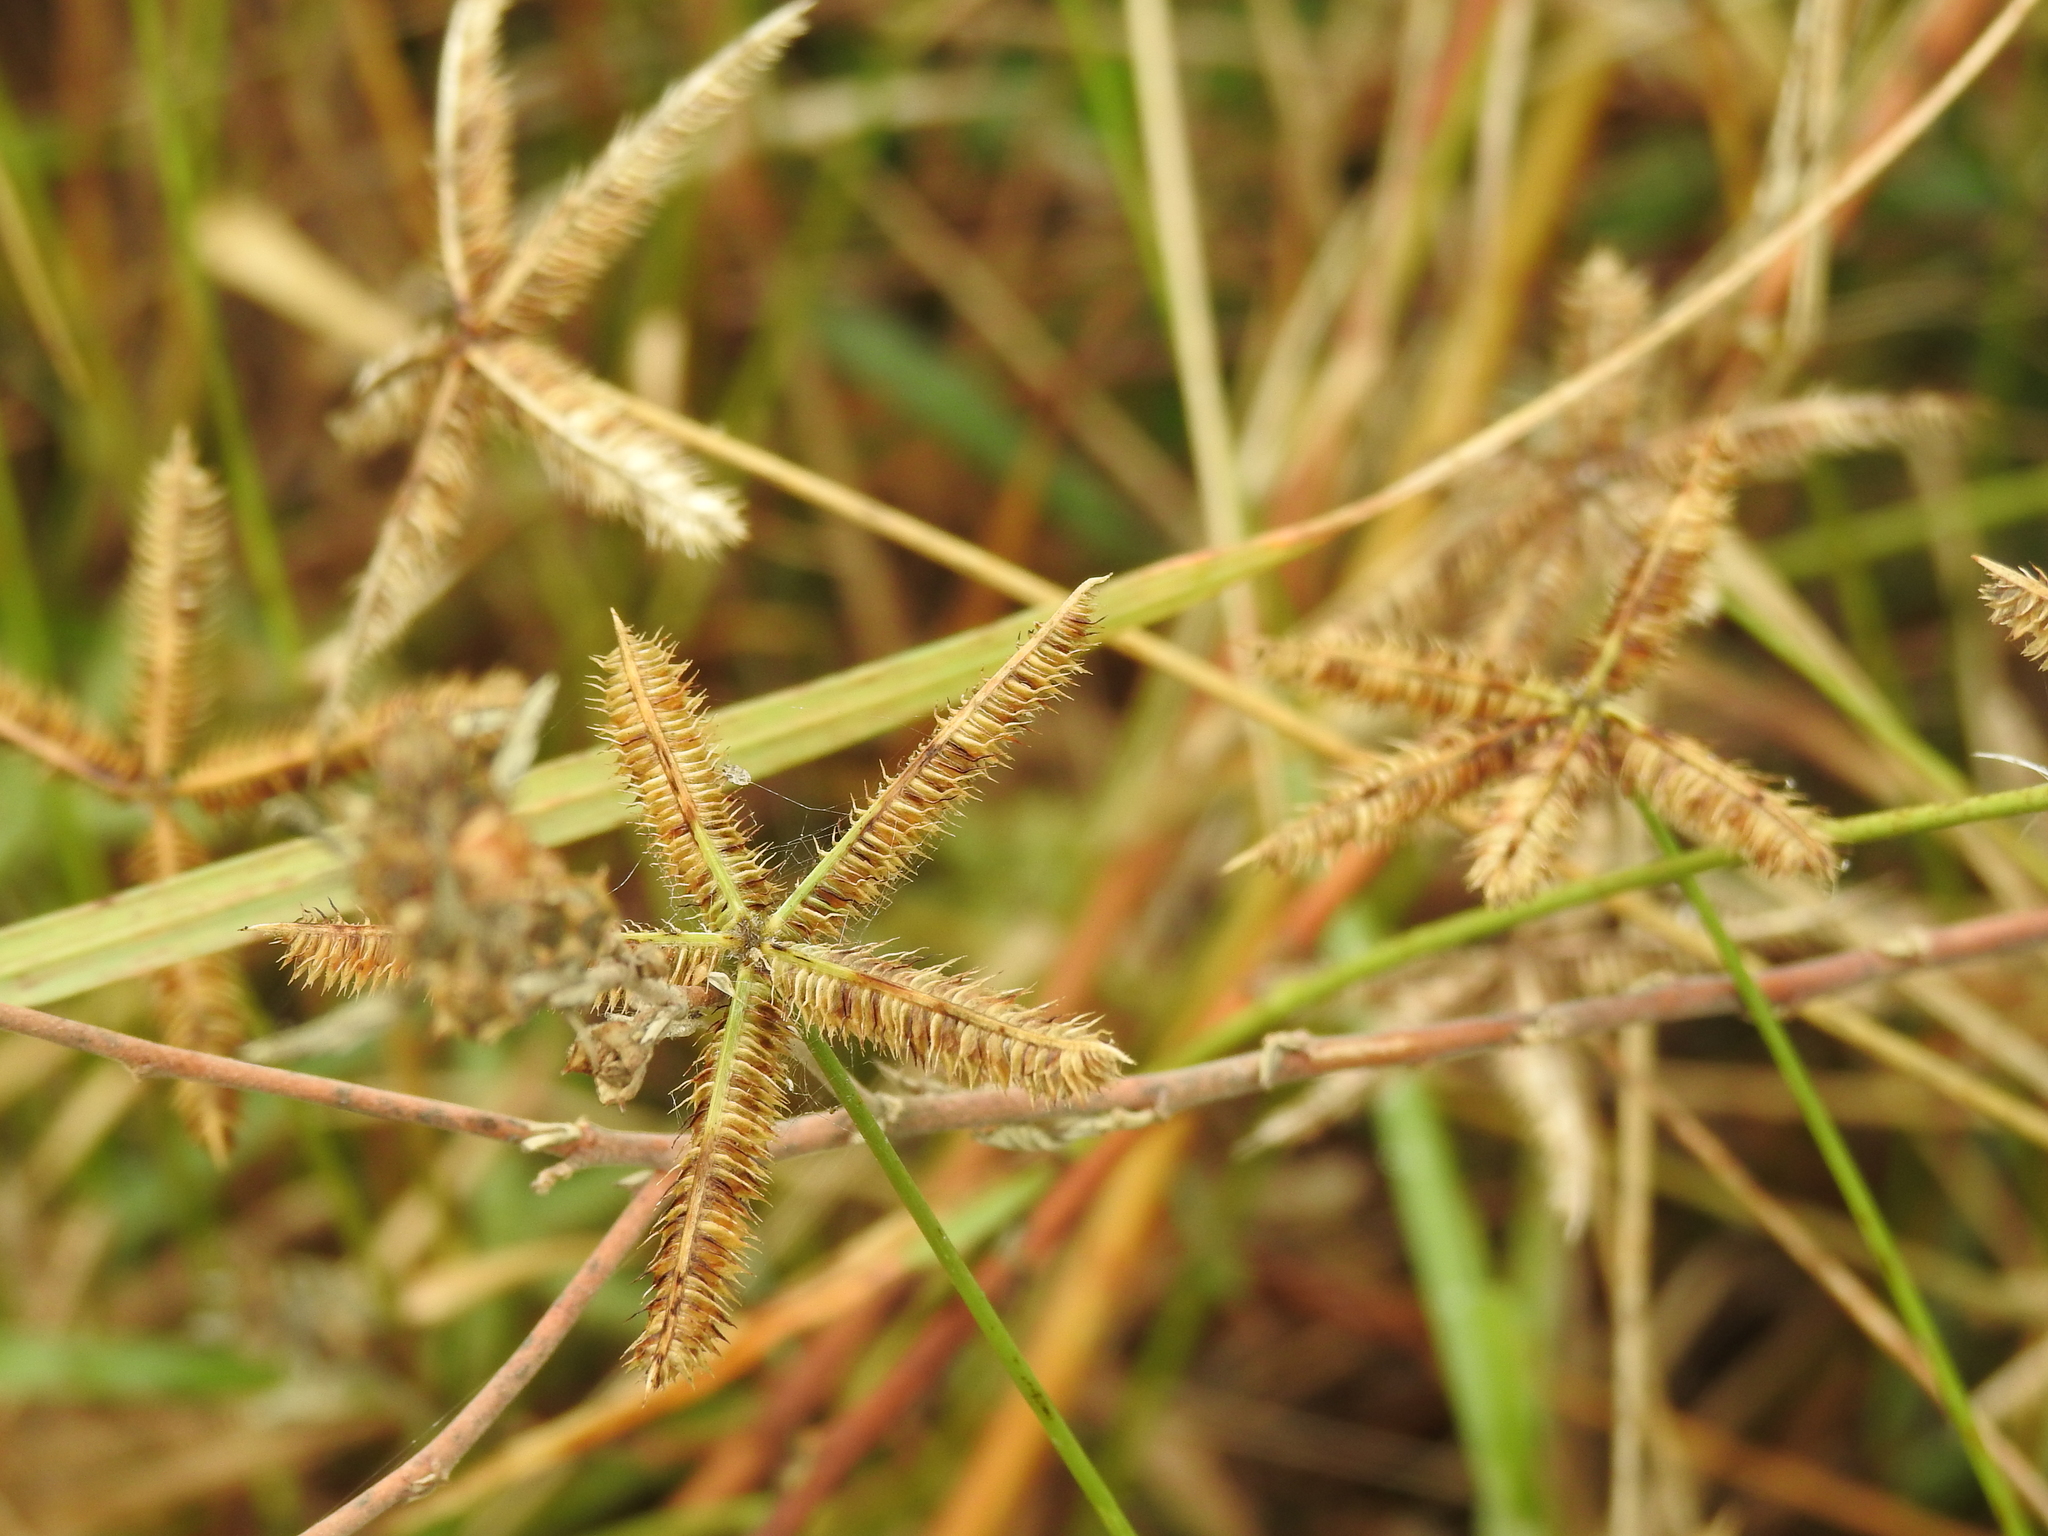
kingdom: Plantae
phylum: Tracheophyta
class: Liliopsida
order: Poales
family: Poaceae
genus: Dactyloctenium
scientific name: Dactyloctenium aegyptium
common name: Egyptian grass
